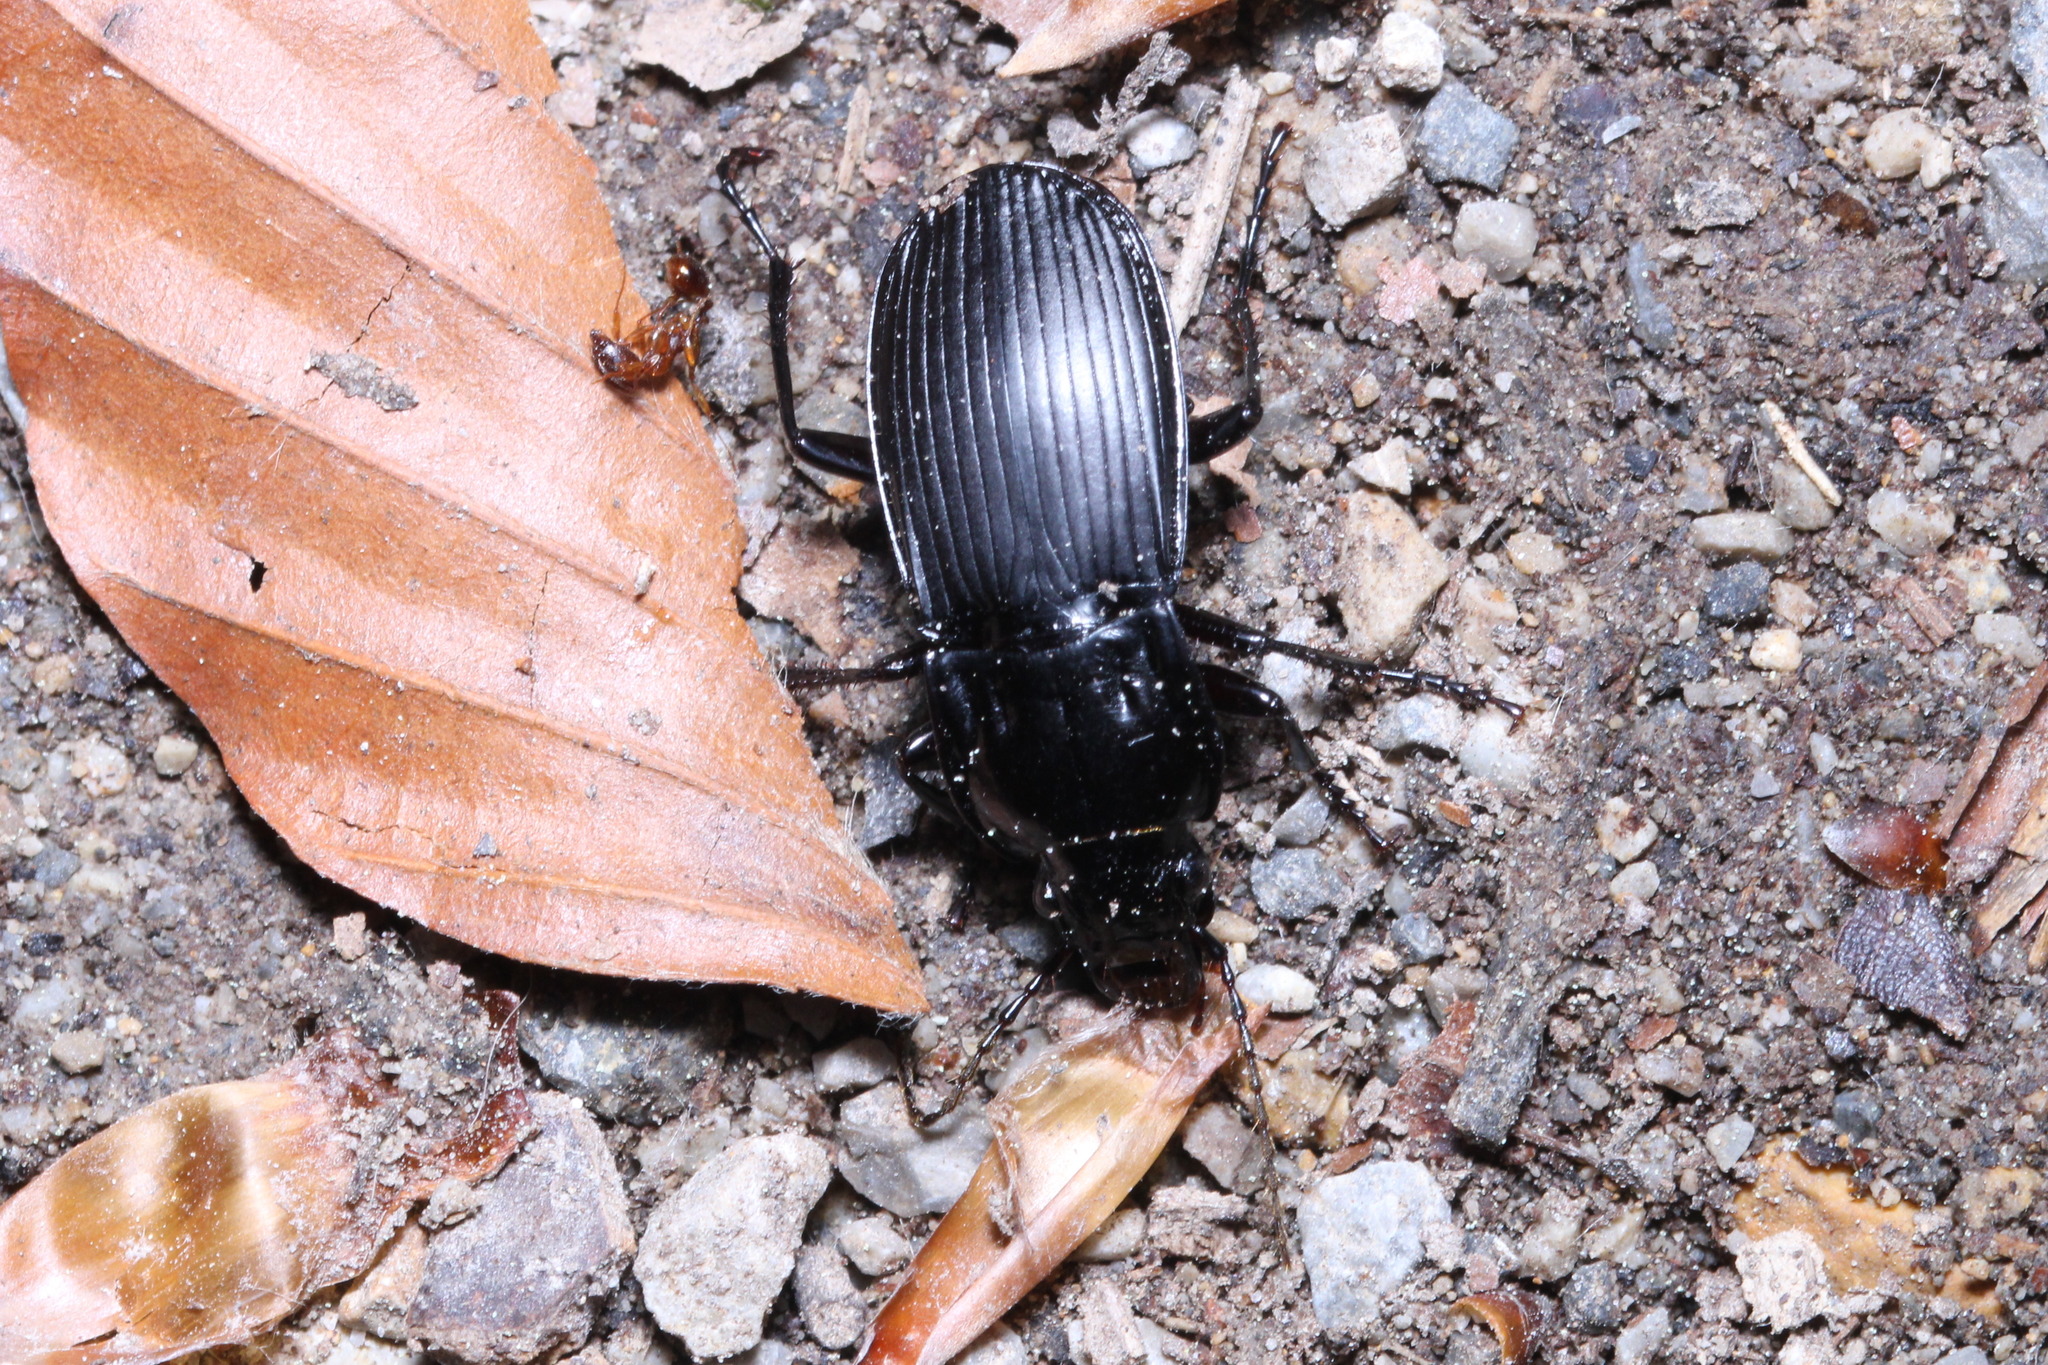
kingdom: Animalia
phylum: Arthropoda
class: Insecta
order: Coleoptera
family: Carabidae
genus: Abax
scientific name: Abax parallelepipedus
